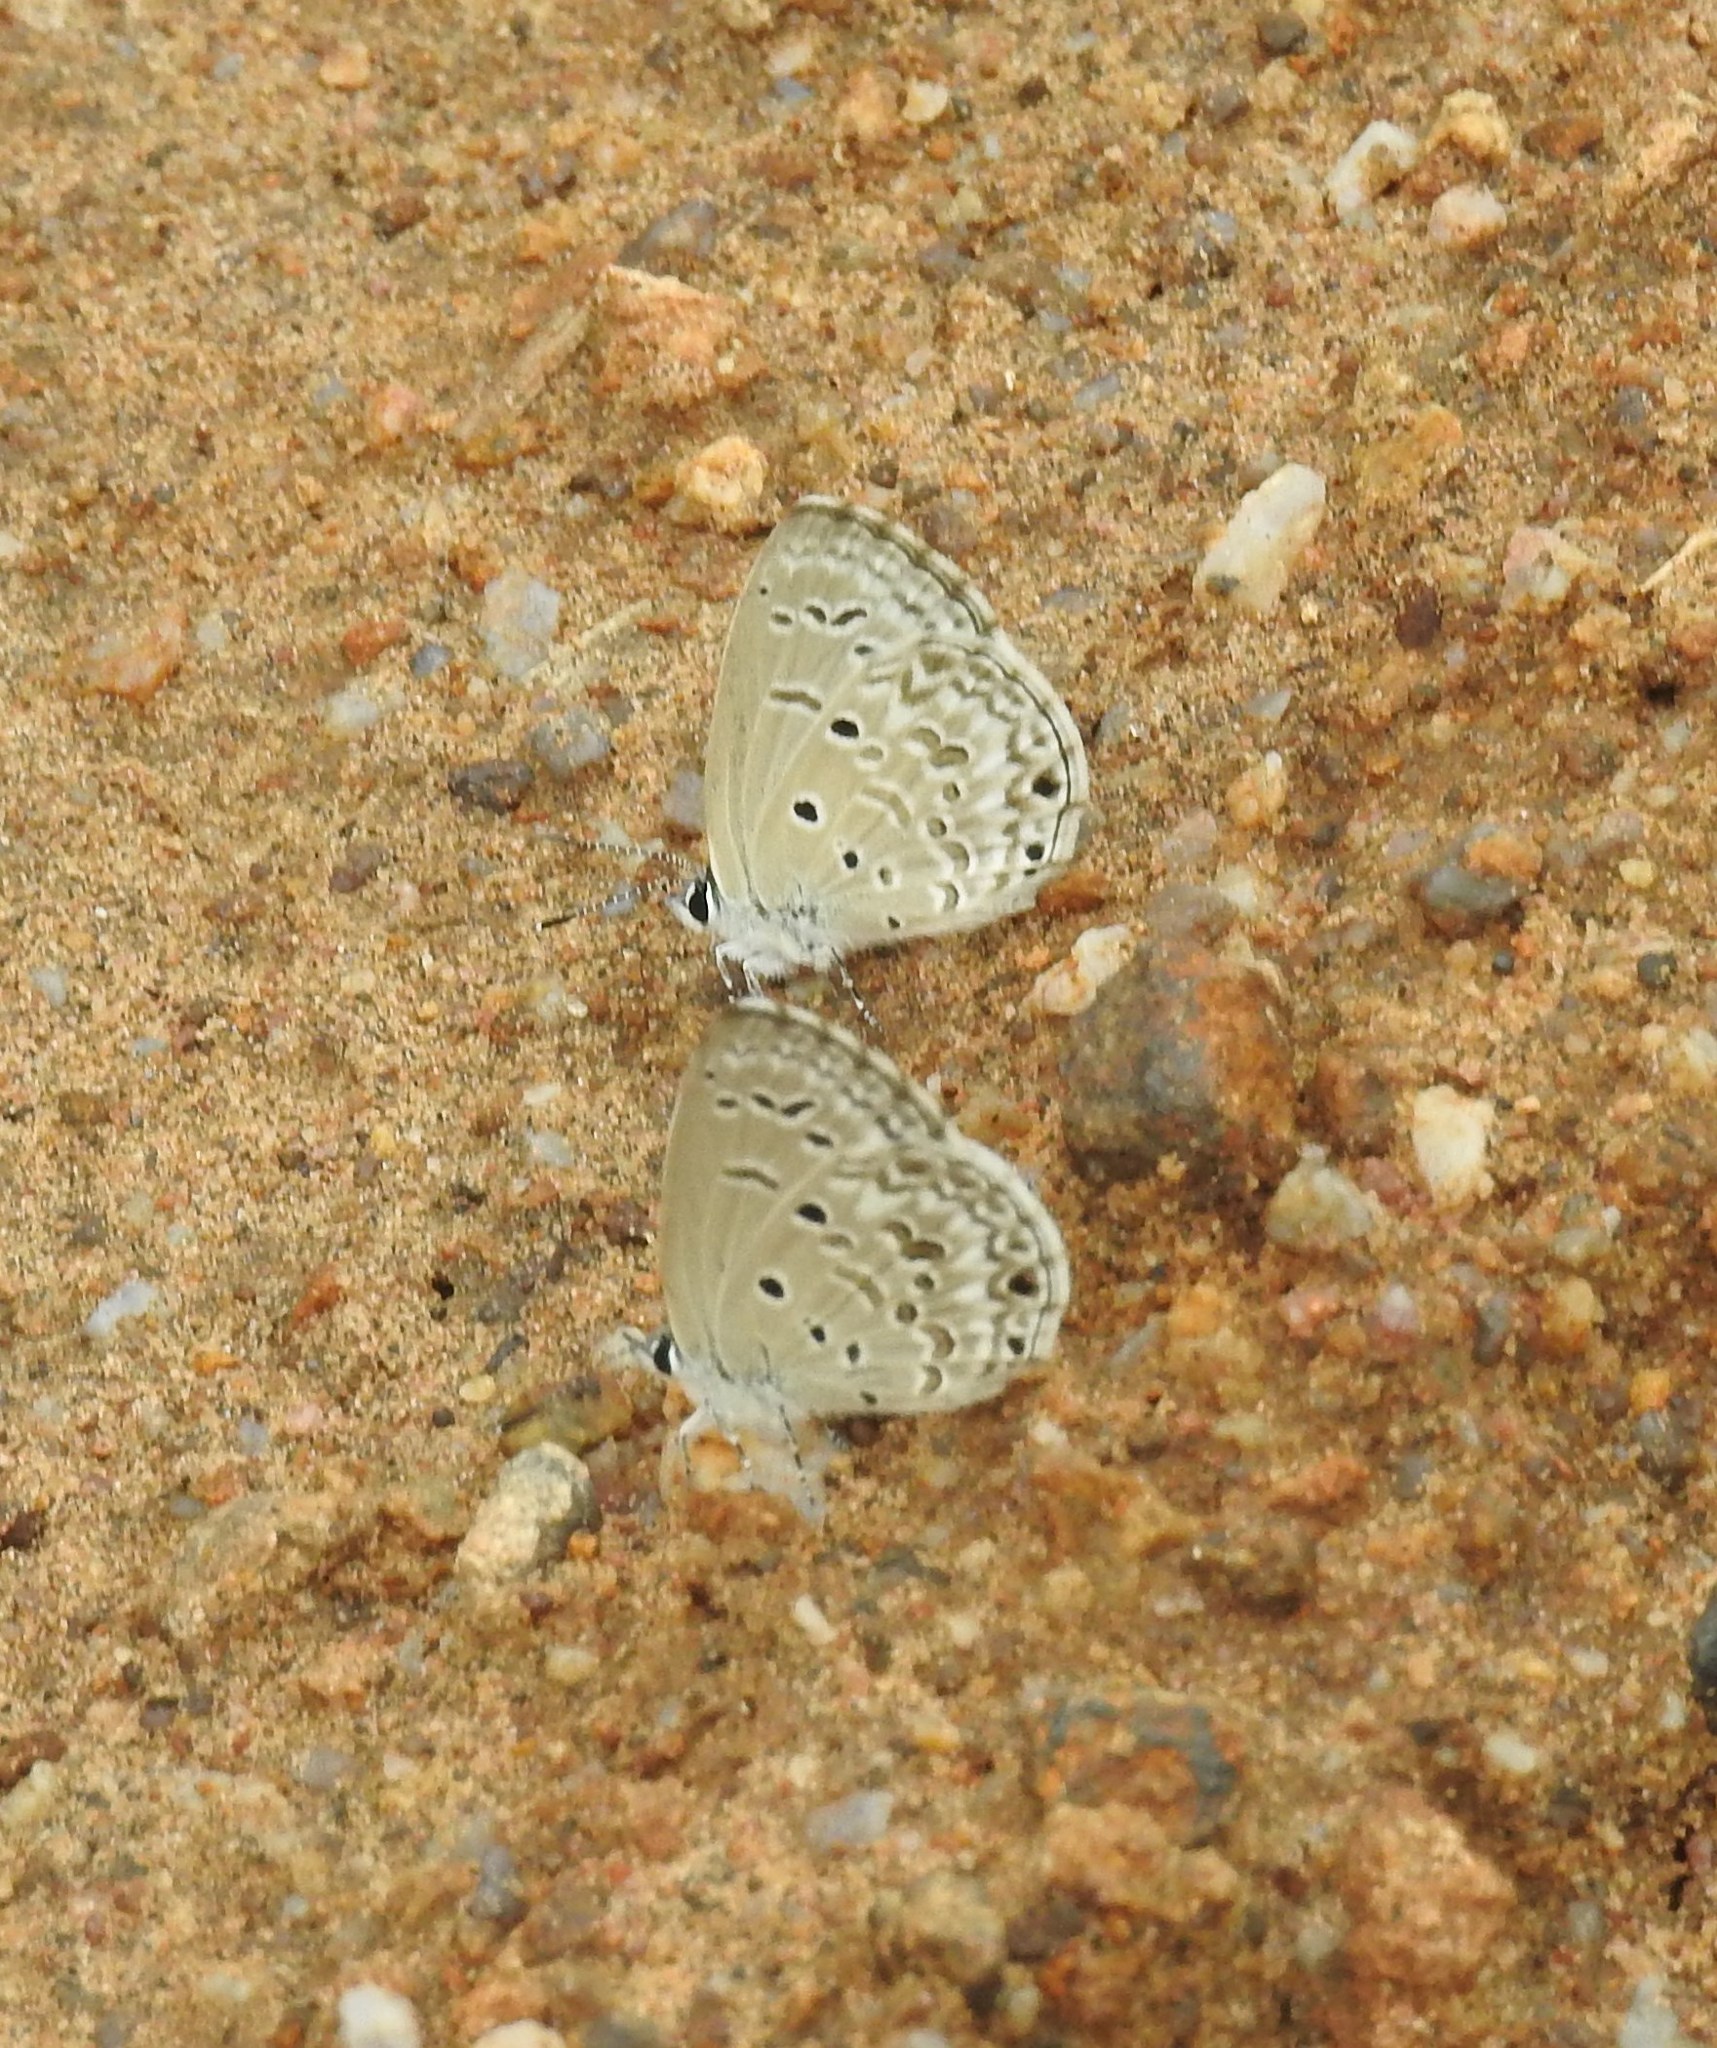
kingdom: Animalia
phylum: Arthropoda
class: Insecta
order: Lepidoptera
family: Lycaenidae
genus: Chilades
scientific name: Chilades laius
